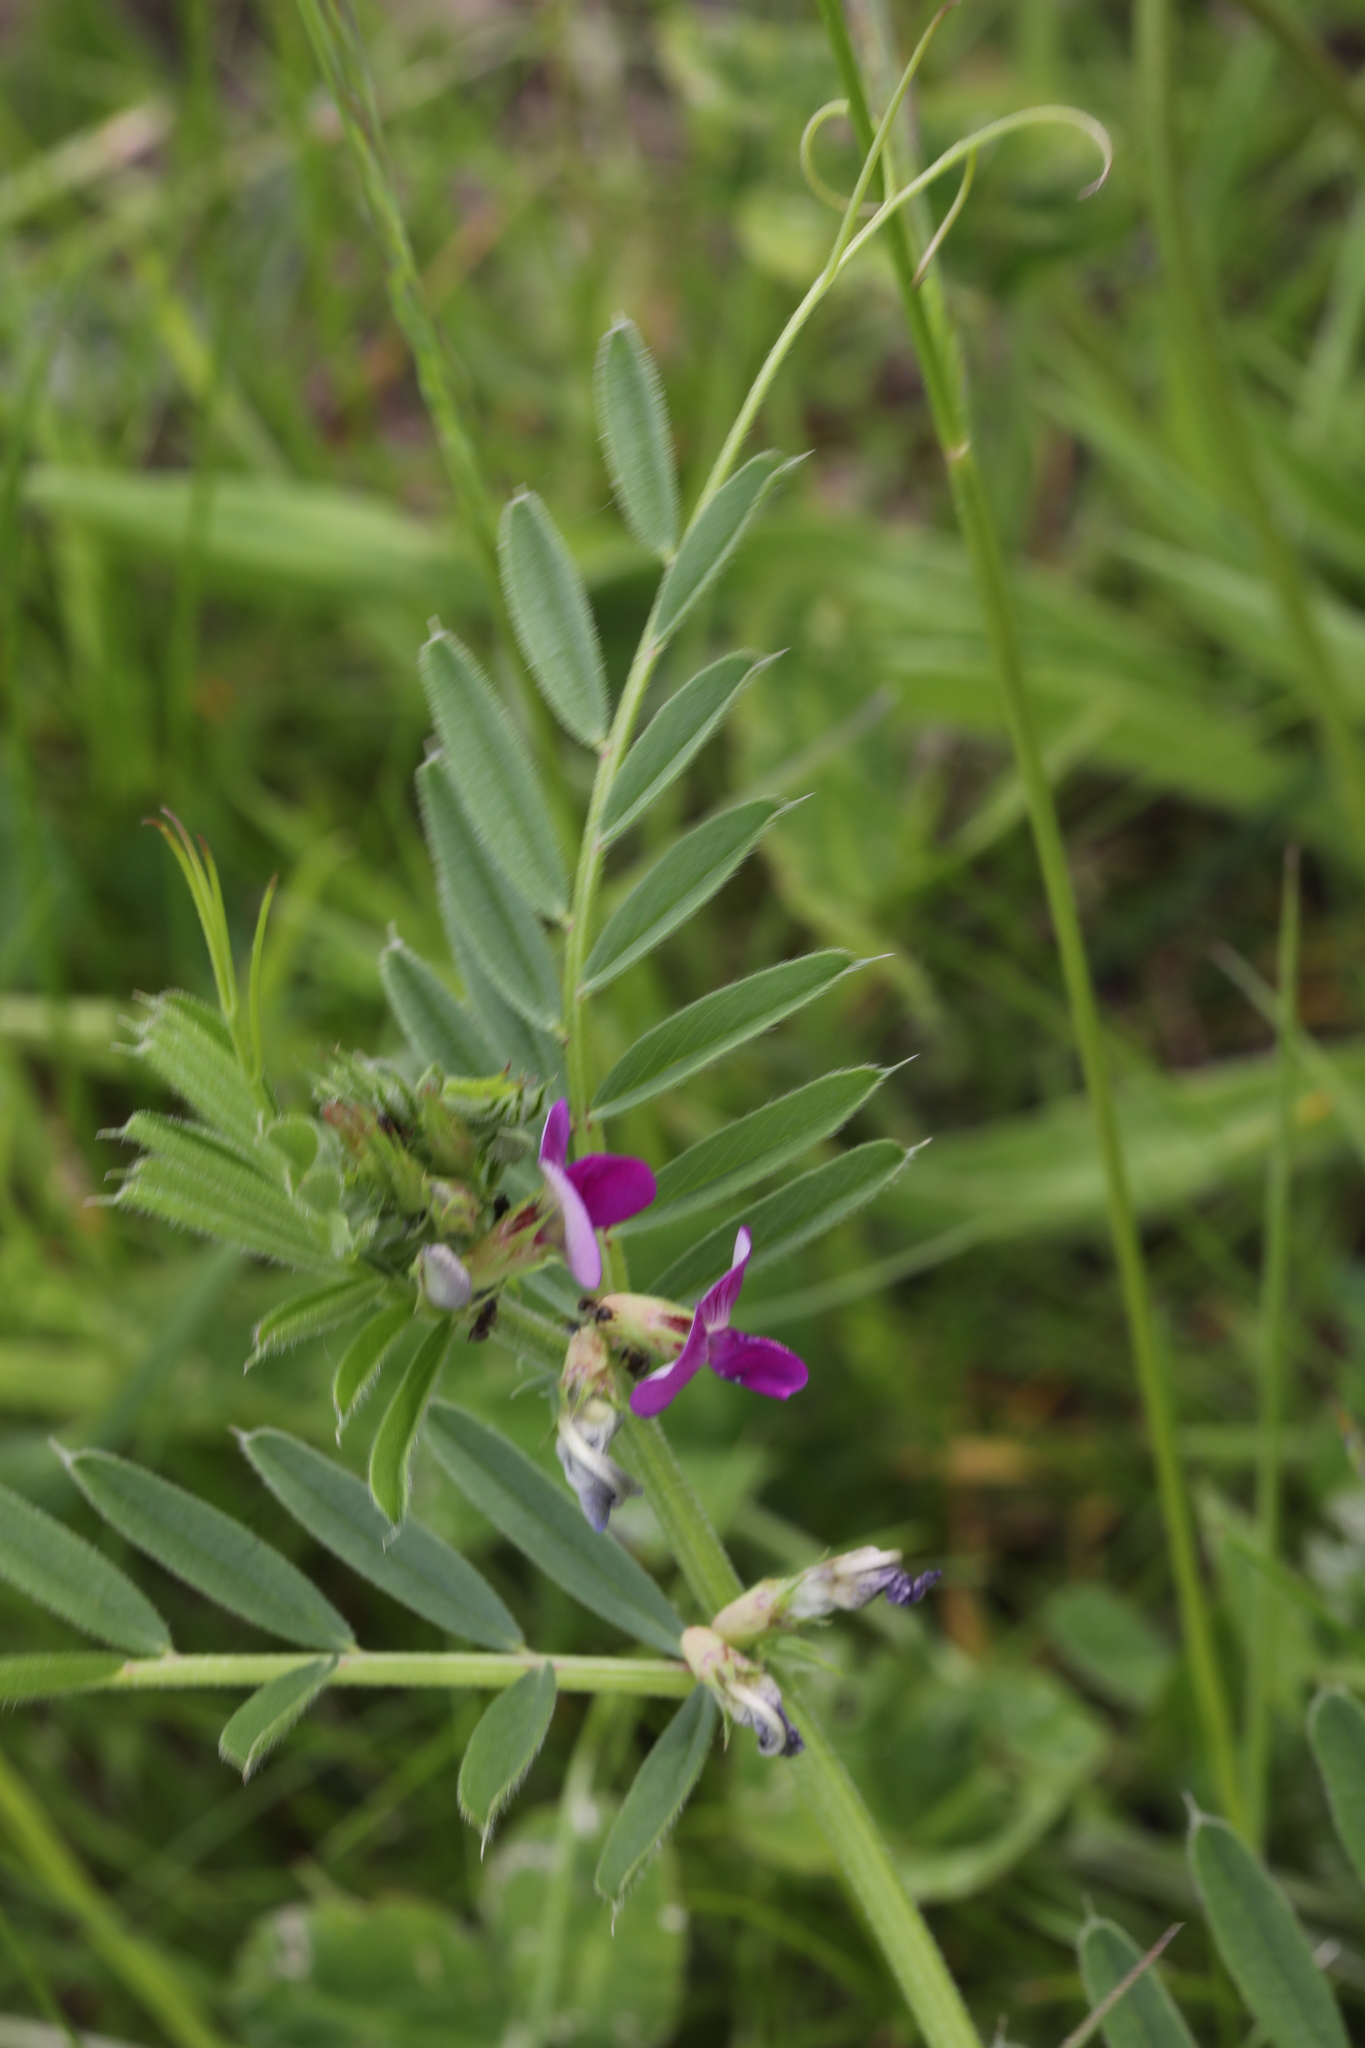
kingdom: Plantae
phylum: Tracheophyta
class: Magnoliopsida
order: Fabales
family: Fabaceae
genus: Vicia
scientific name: Vicia sativa
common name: Garden vetch
